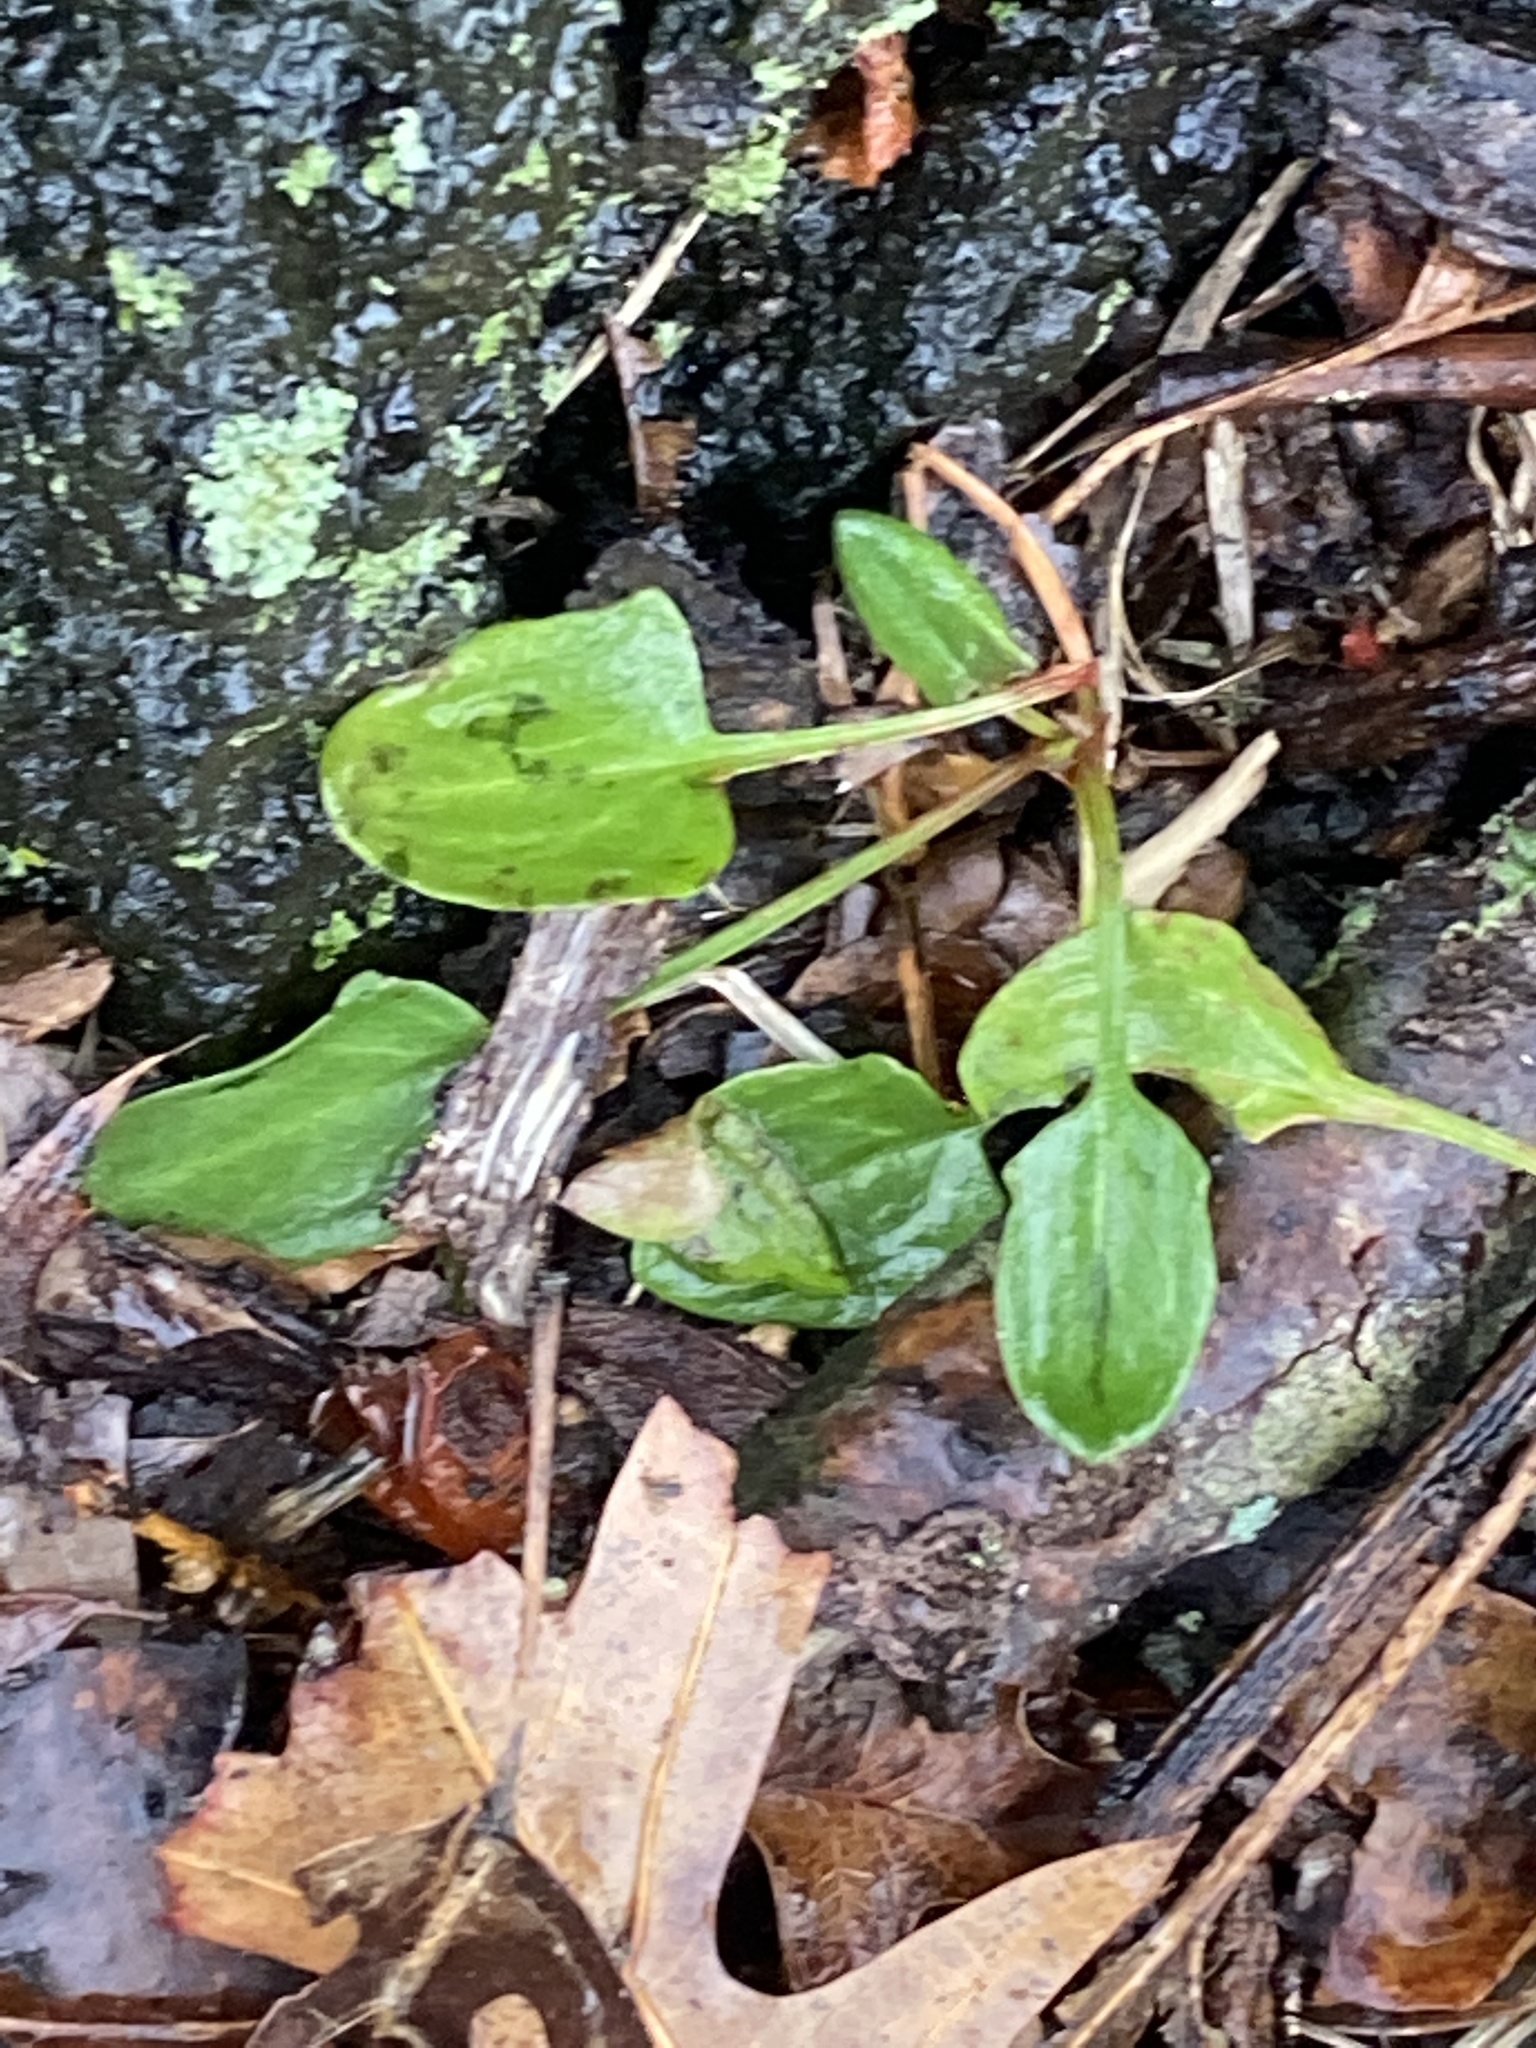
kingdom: Plantae
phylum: Tracheophyta
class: Magnoliopsida
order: Caryophyllales
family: Polygonaceae
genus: Rumex
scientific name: Rumex acetosella
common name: Common sheep sorrel
